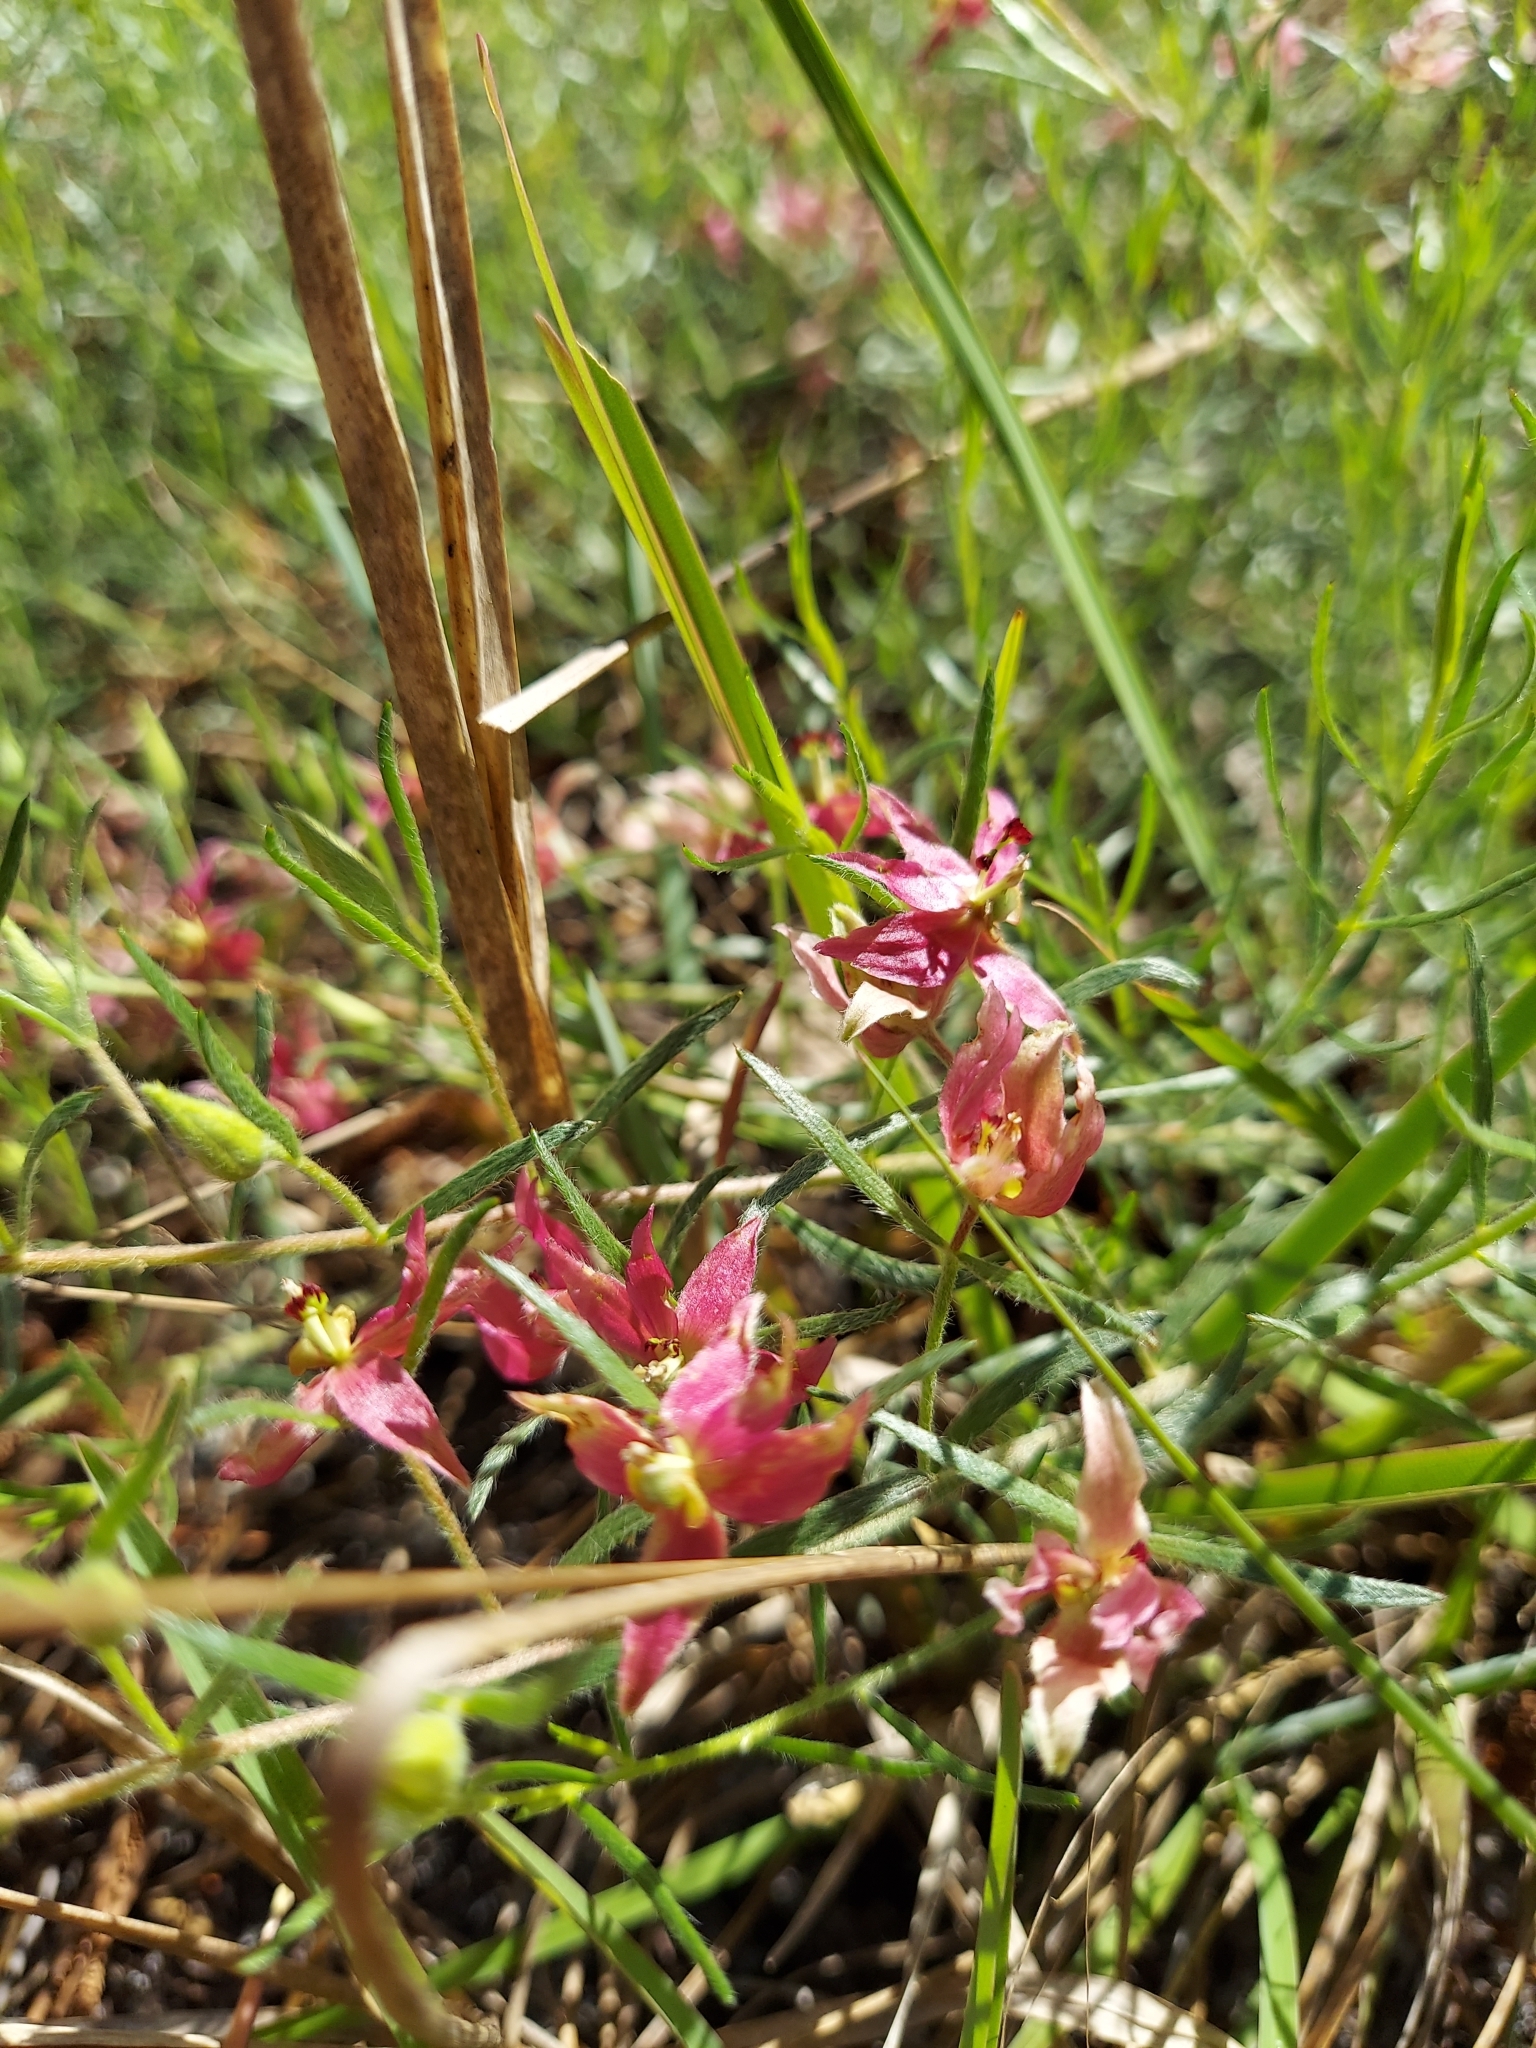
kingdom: Plantae
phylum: Tracheophyta
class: Magnoliopsida
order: Zygophyllales
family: Krameriaceae
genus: Krameria
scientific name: Krameria lanceolata
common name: Ratany
